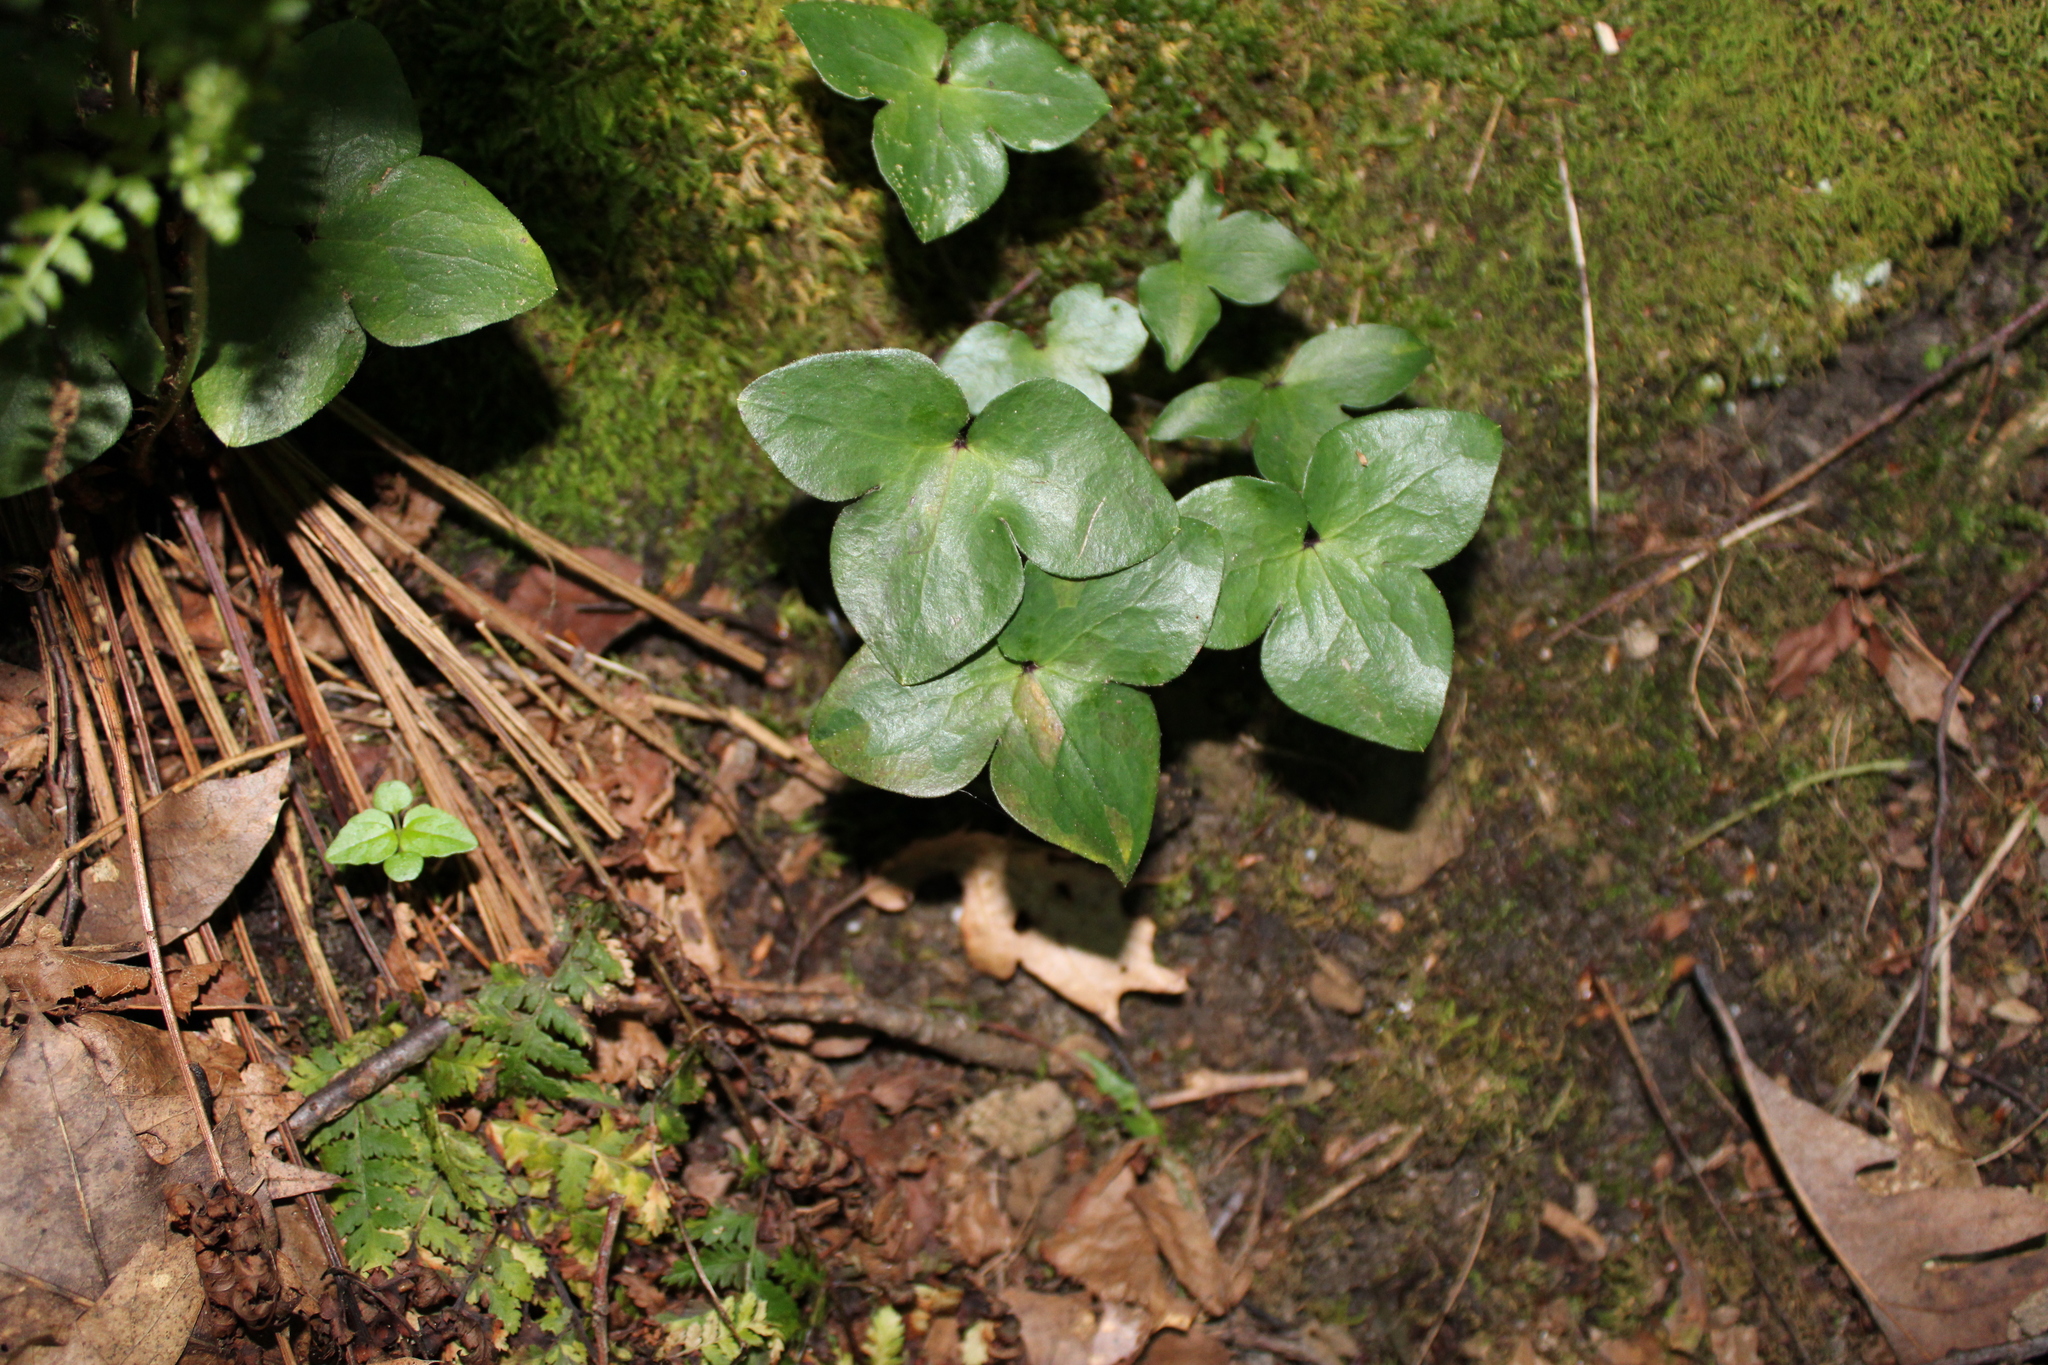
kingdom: Plantae
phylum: Tracheophyta
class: Magnoliopsida
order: Ranunculales
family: Ranunculaceae
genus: Hepatica
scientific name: Hepatica acutiloba
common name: Sharp-lobed hepatica
